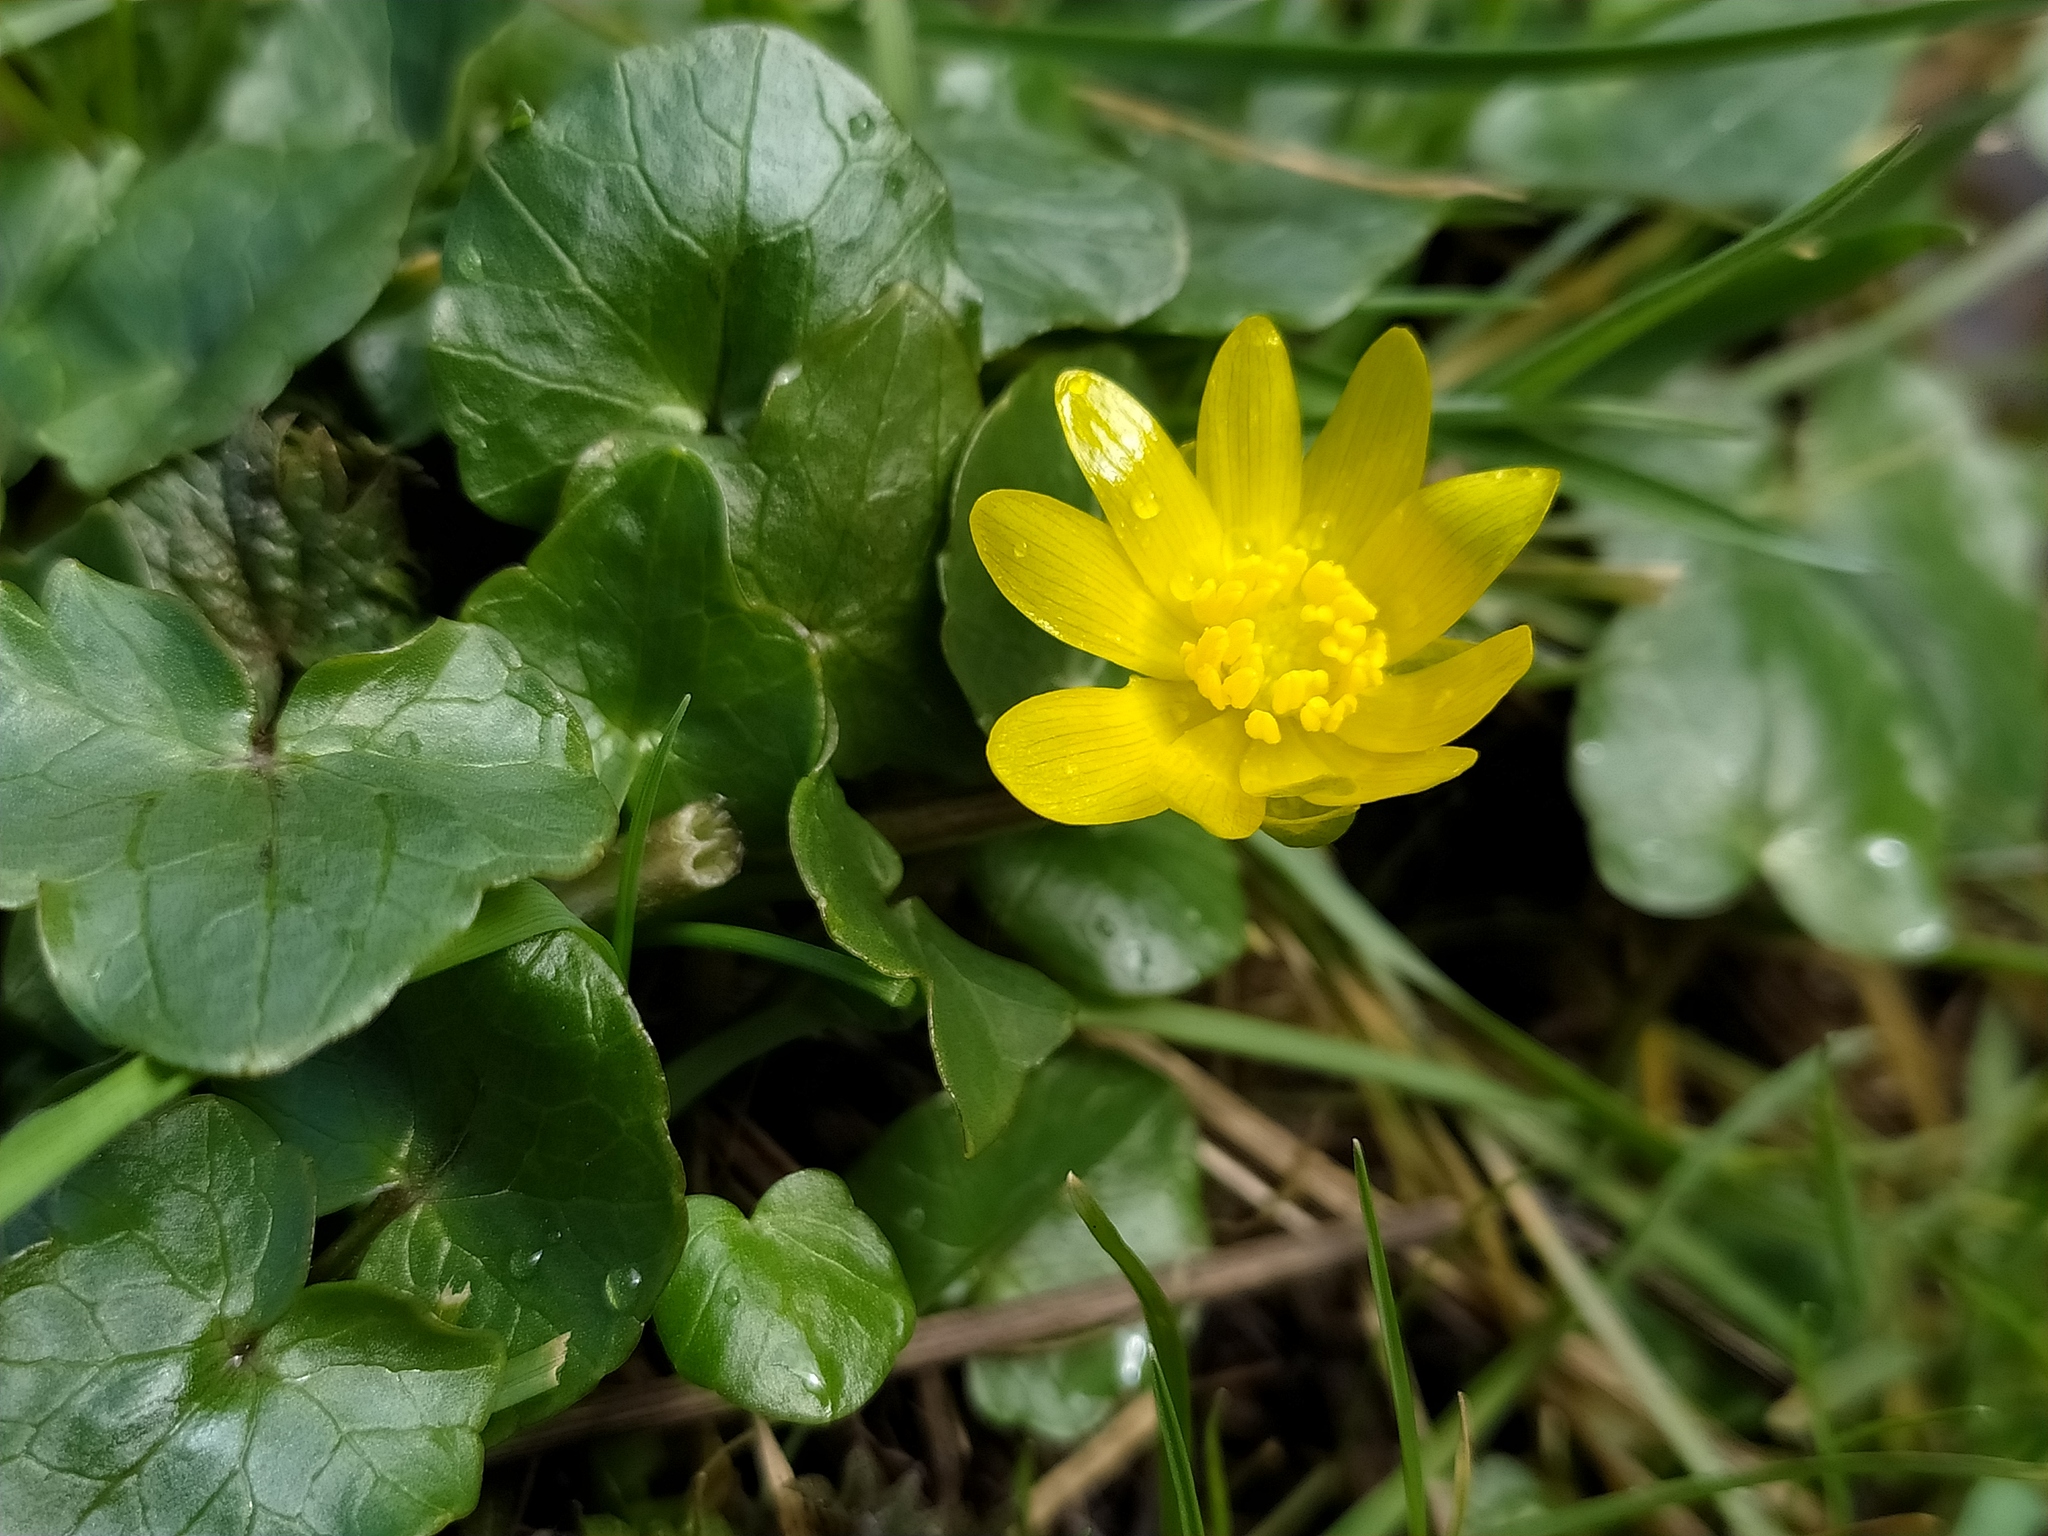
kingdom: Plantae
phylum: Tracheophyta
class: Magnoliopsida
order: Ranunculales
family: Ranunculaceae
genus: Ficaria
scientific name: Ficaria verna
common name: Lesser celandine
